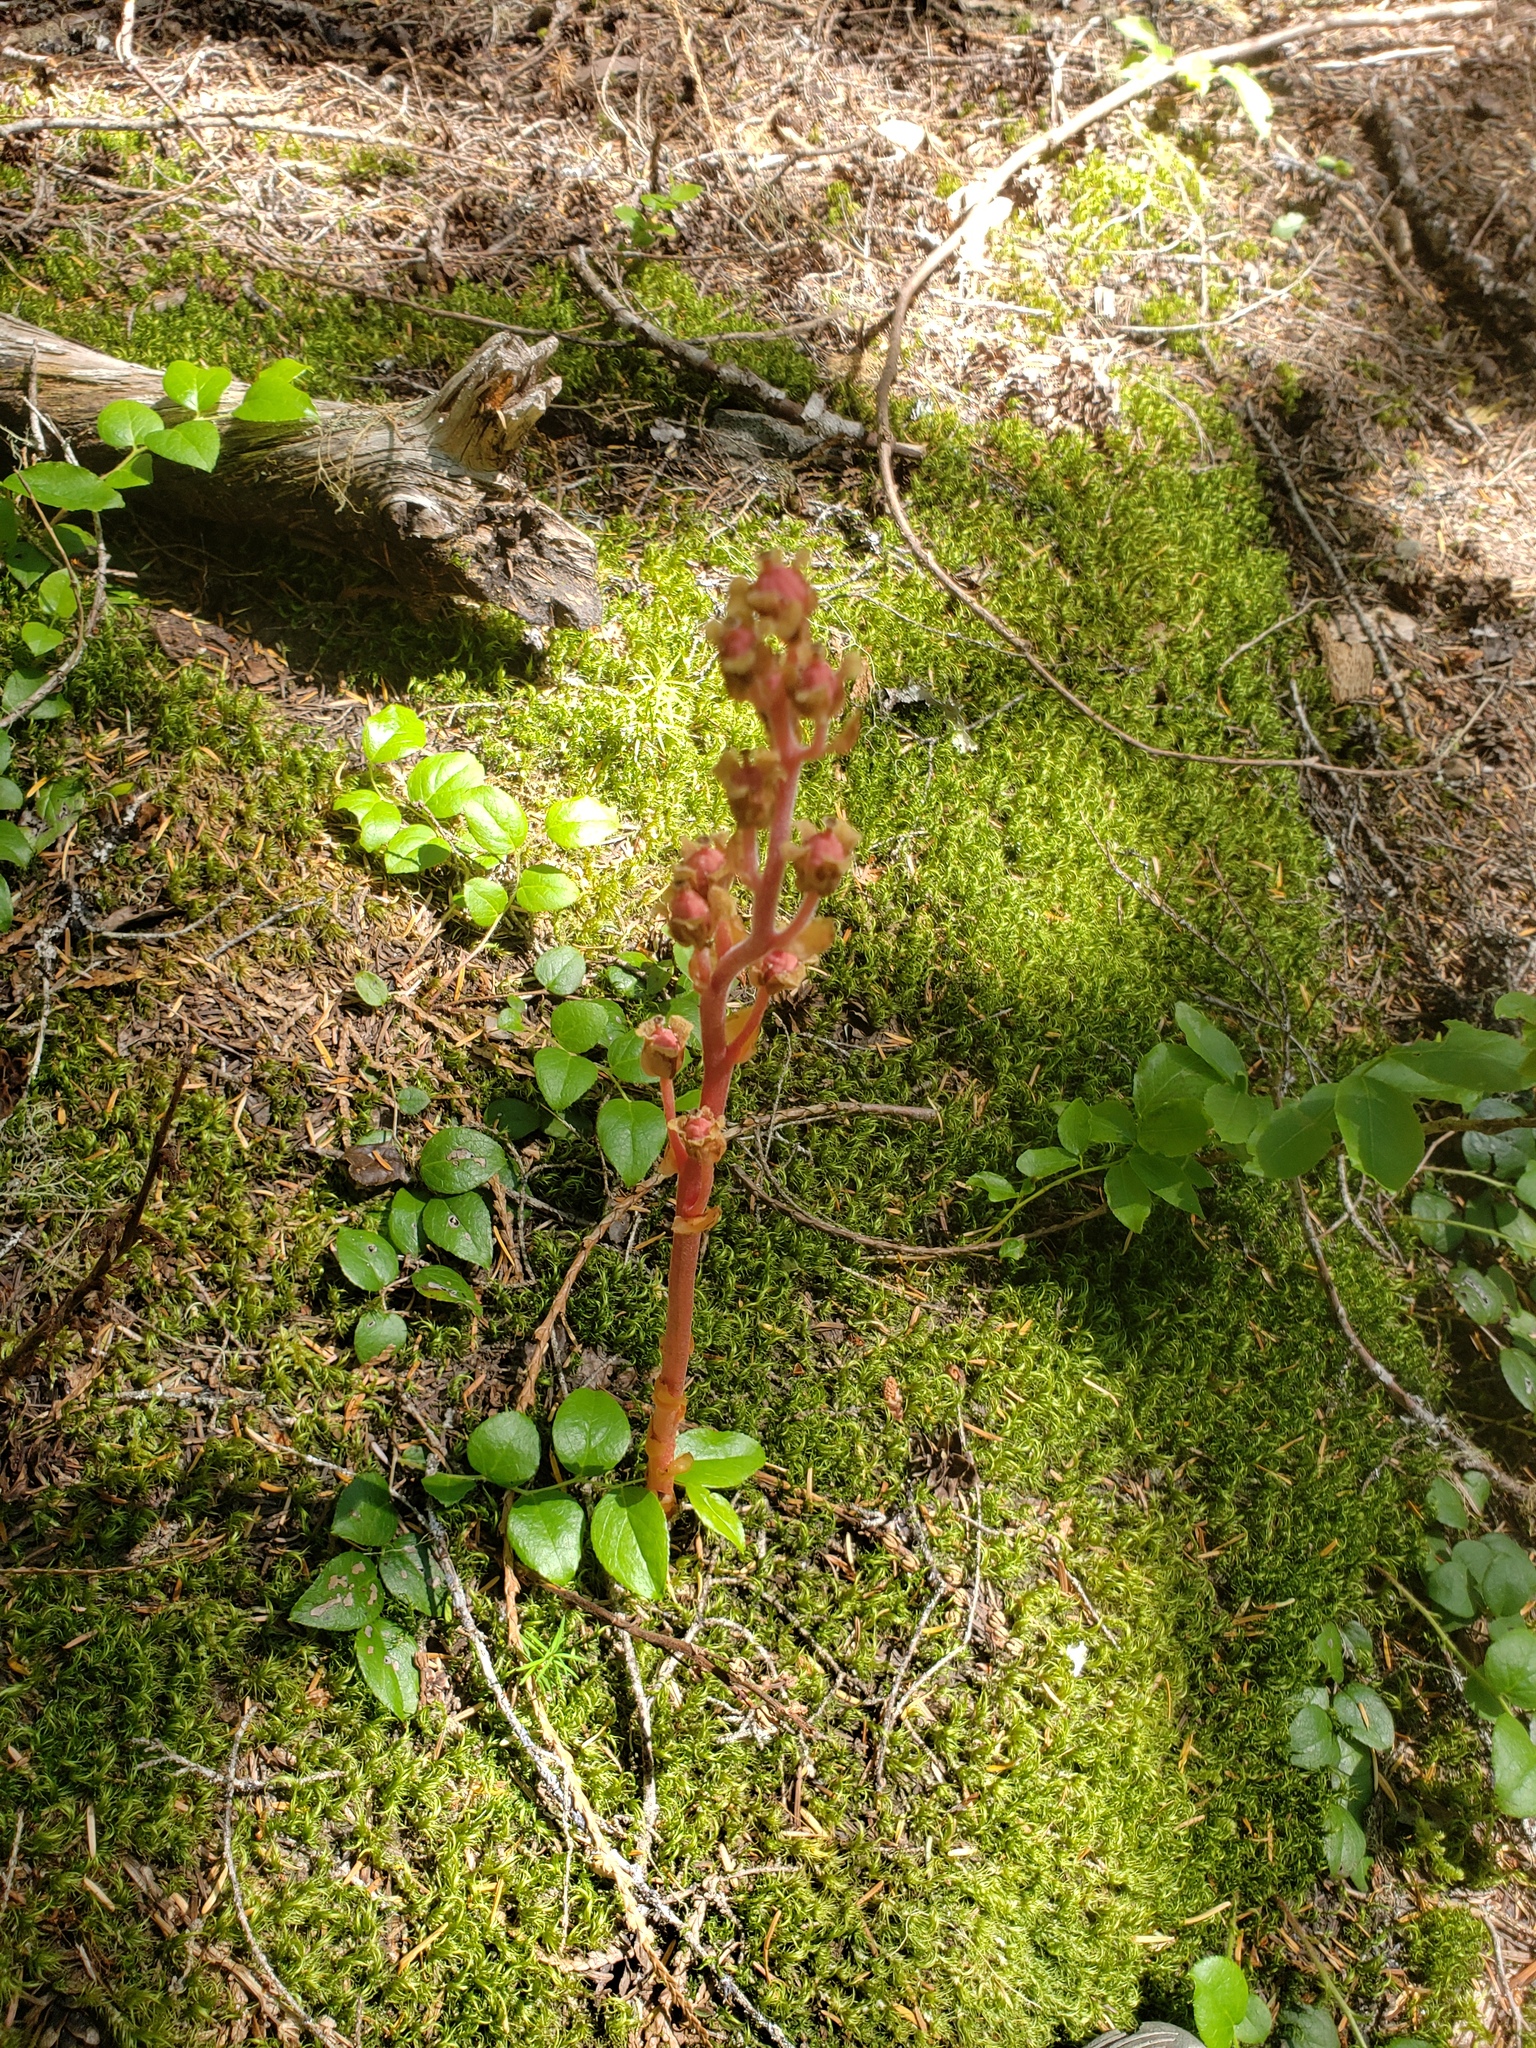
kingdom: Plantae
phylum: Tracheophyta
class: Magnoliopsida
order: Ericales
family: Ericaceae
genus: Hypopitys
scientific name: Hypopitys monotropa
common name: Yellow bird's-nest
